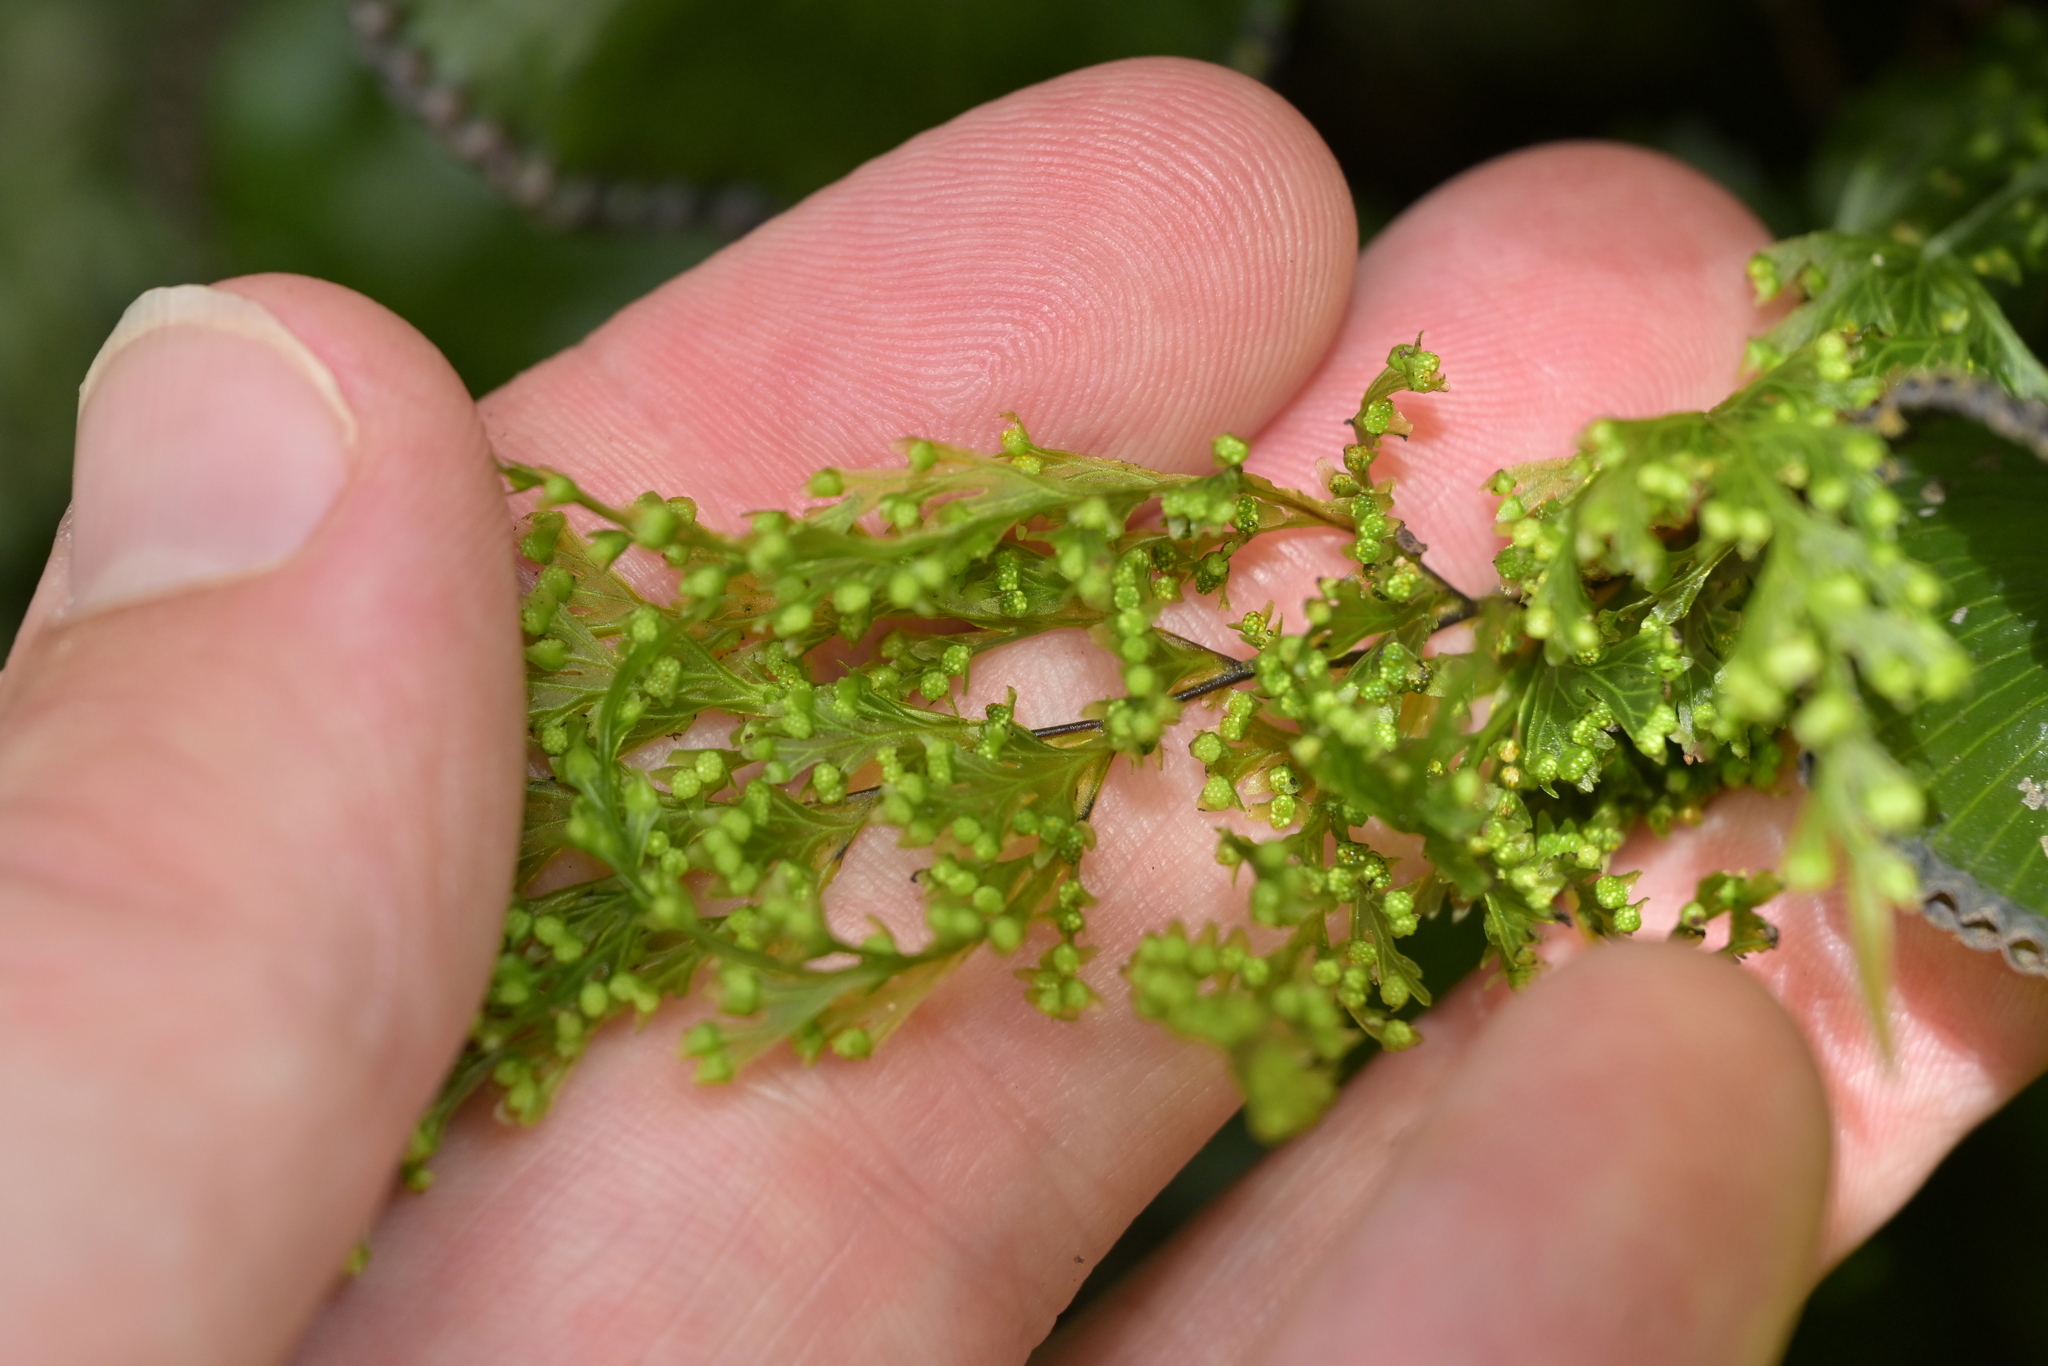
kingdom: Plantae
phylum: Tracheophyta
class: Polypodiopsida
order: Hymenophyllales
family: Hymenophyllaceae
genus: Hymenophyllum
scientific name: Hymenophyllum demissum
